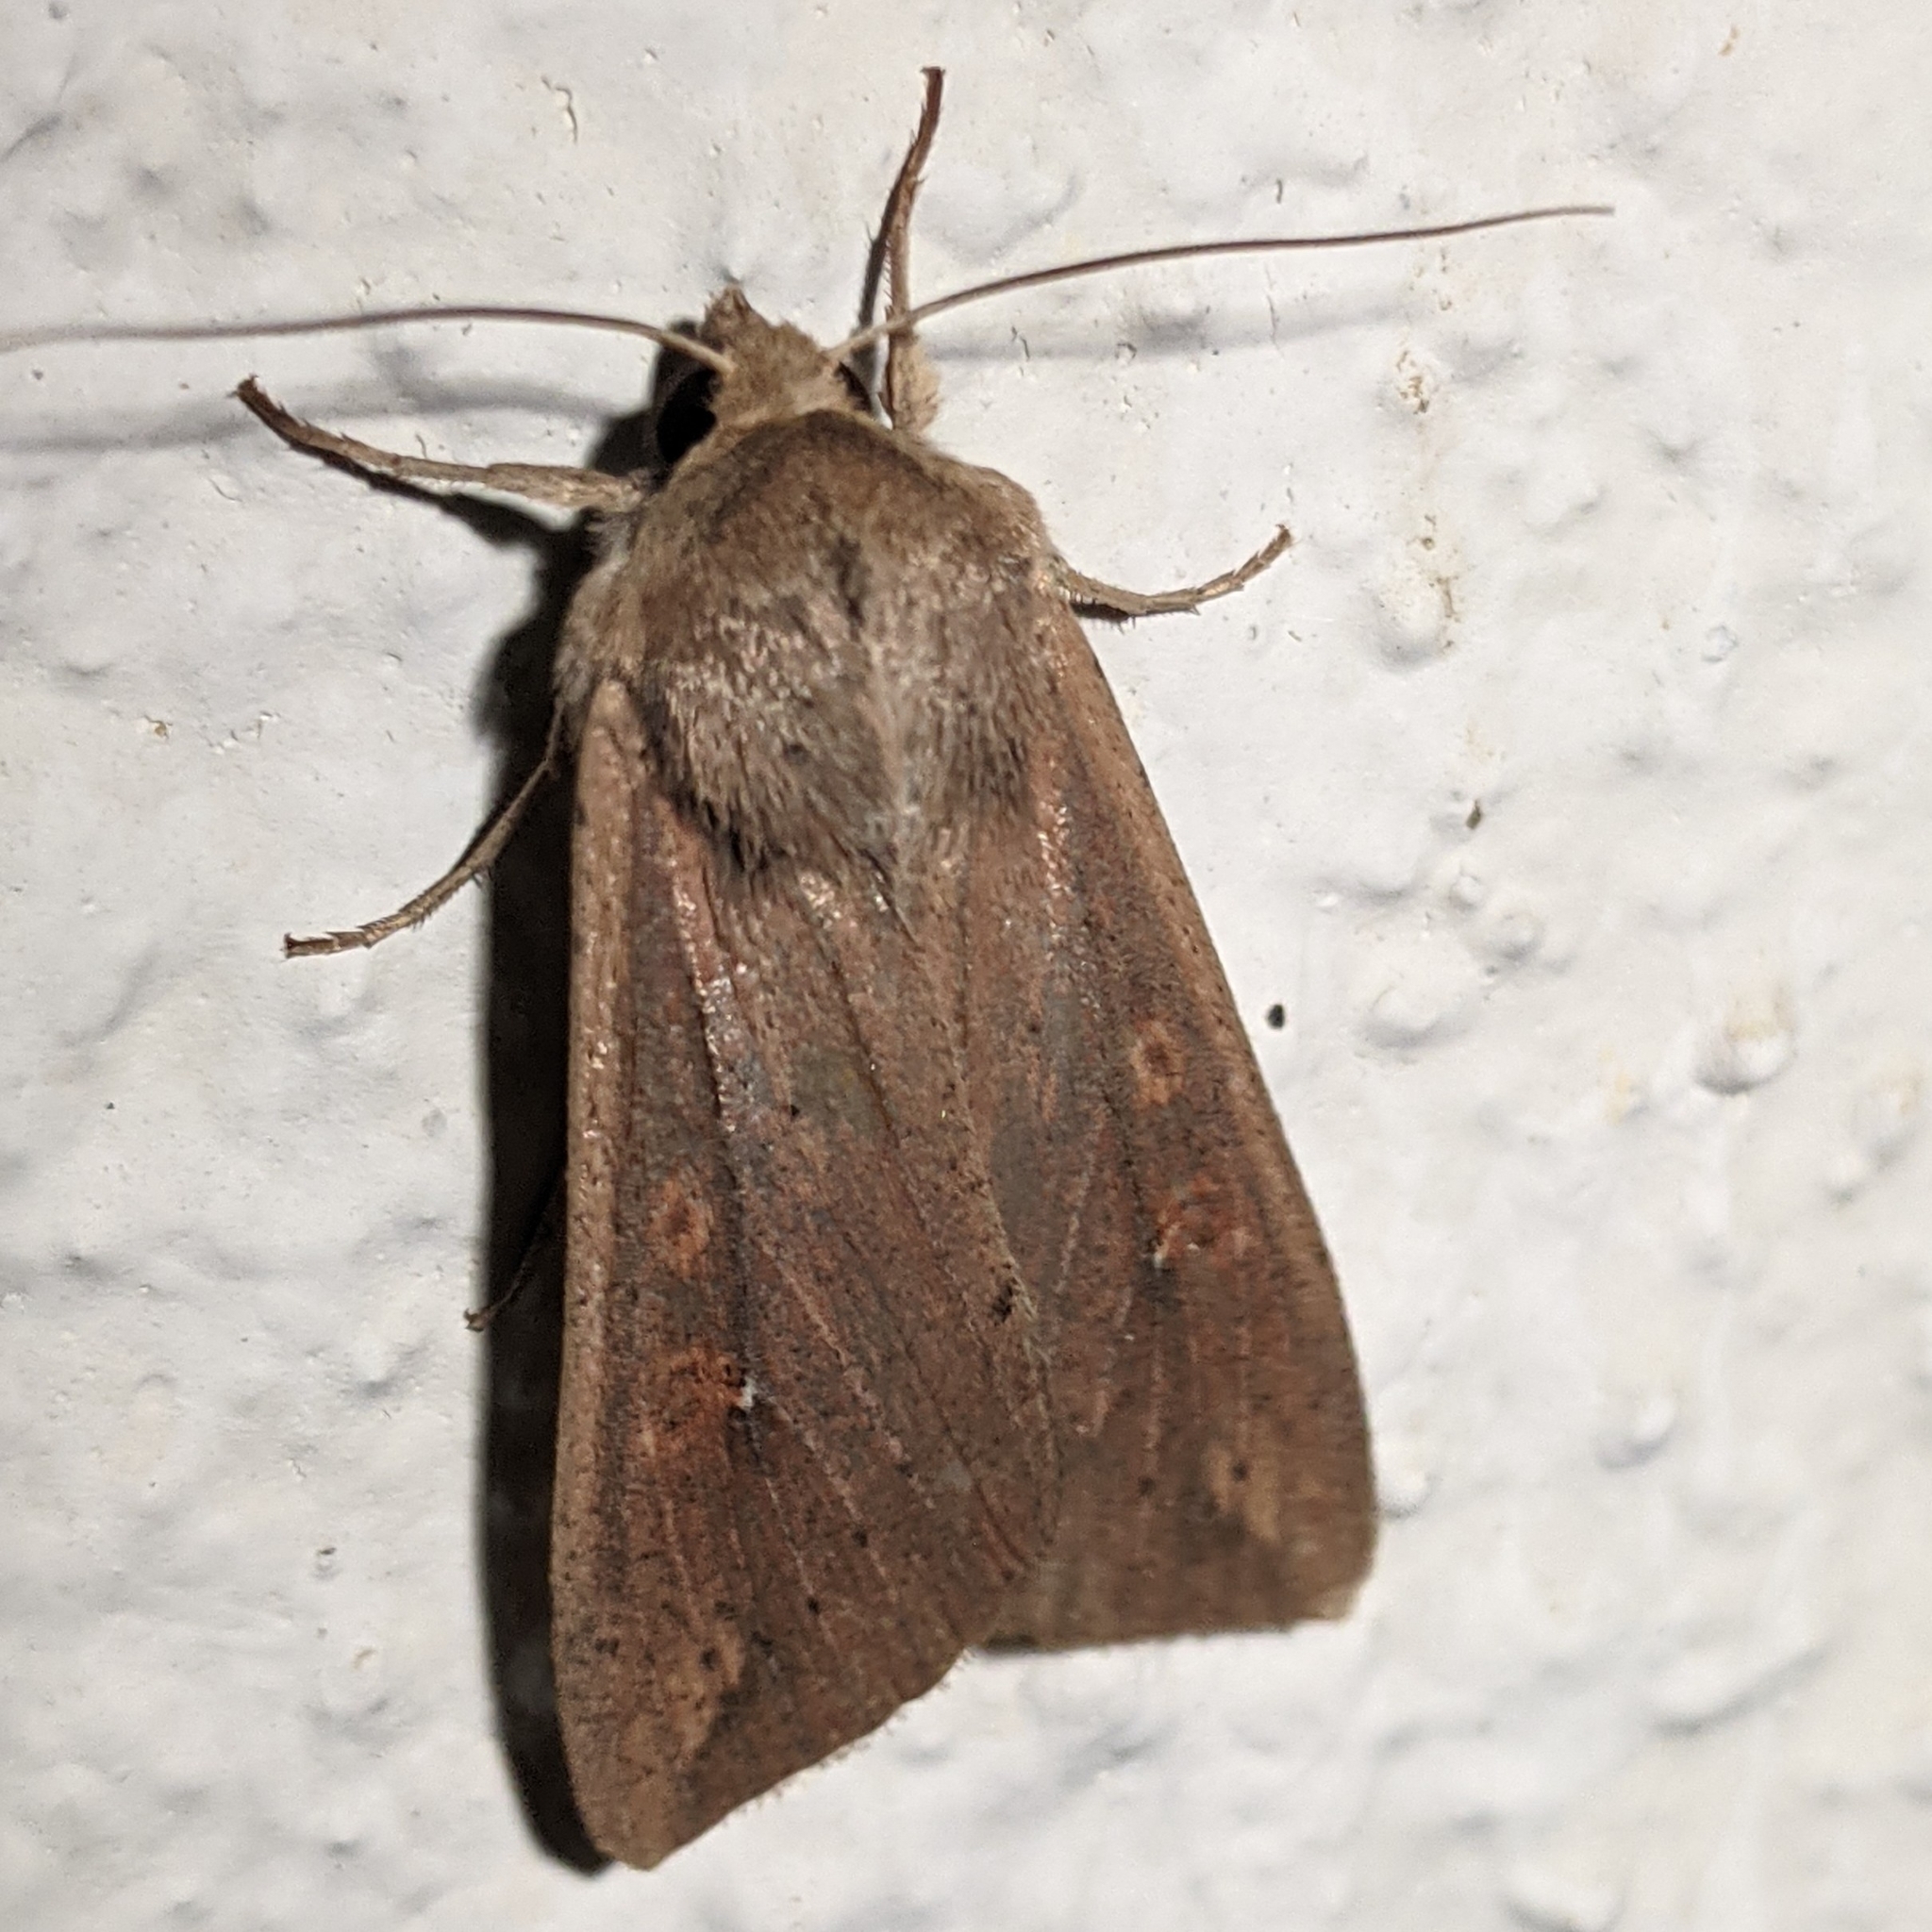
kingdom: Animalia
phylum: Arthropoda
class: Insecta
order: Lepidoptera
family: Noctuidae
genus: Mythimna
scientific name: Mythimna unipuncta
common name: White-speck
